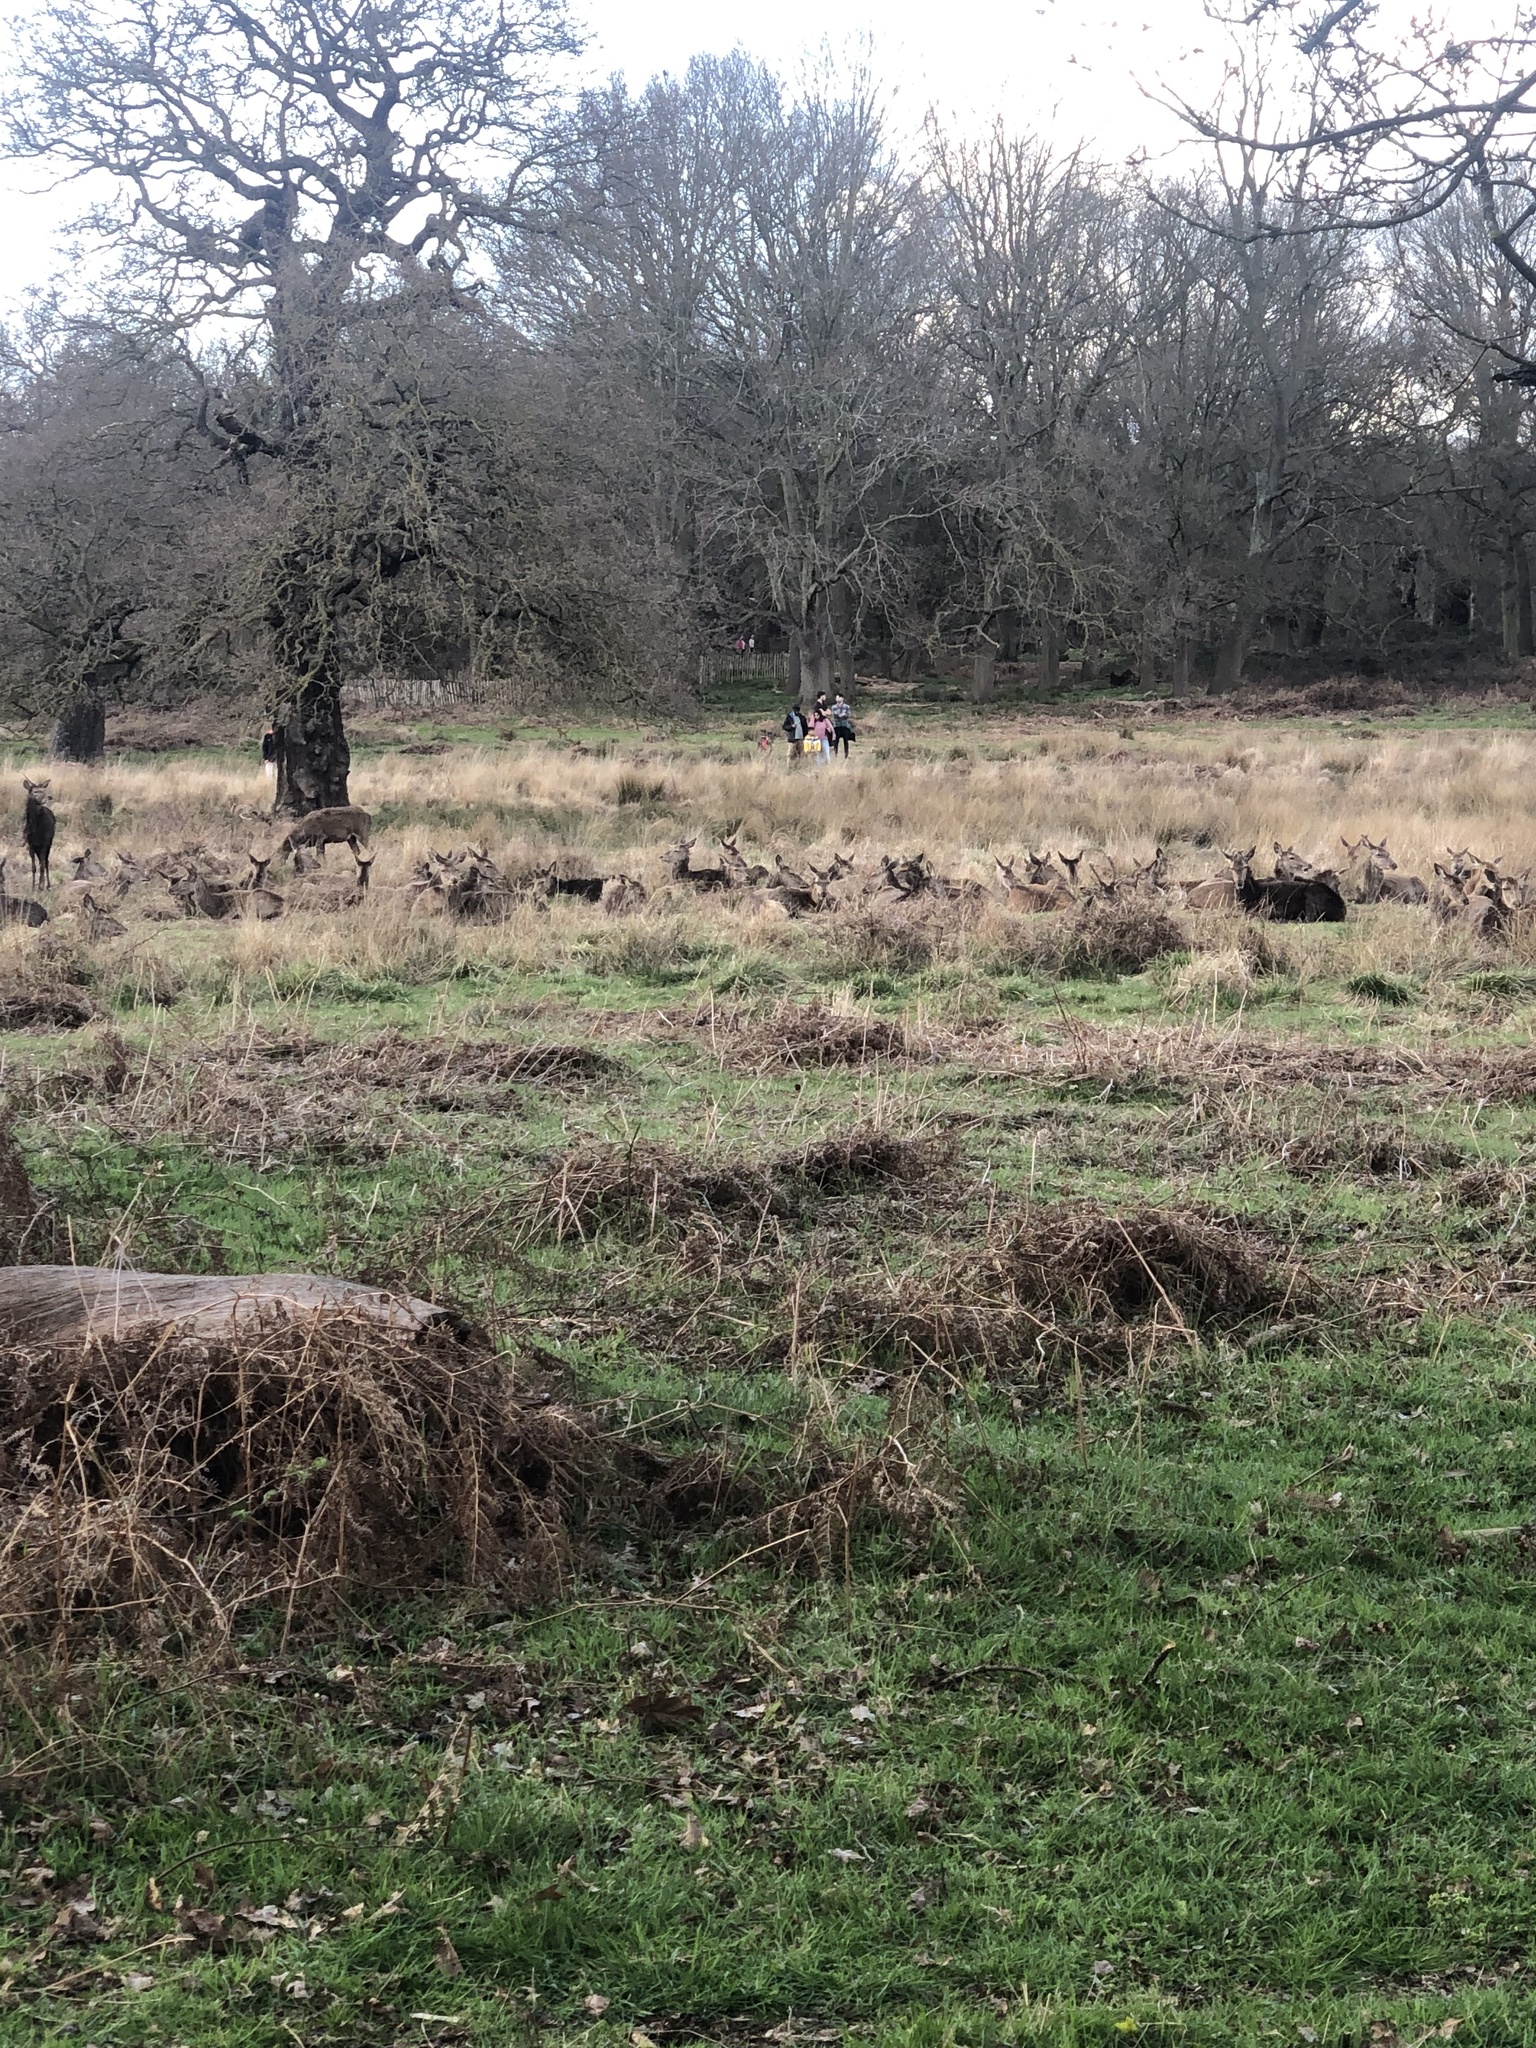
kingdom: Animalia
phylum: Chordata
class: Mammalia
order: Artiodactyla
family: Cervidae
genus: Cervus
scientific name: Cervus elaphus
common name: Red deer
